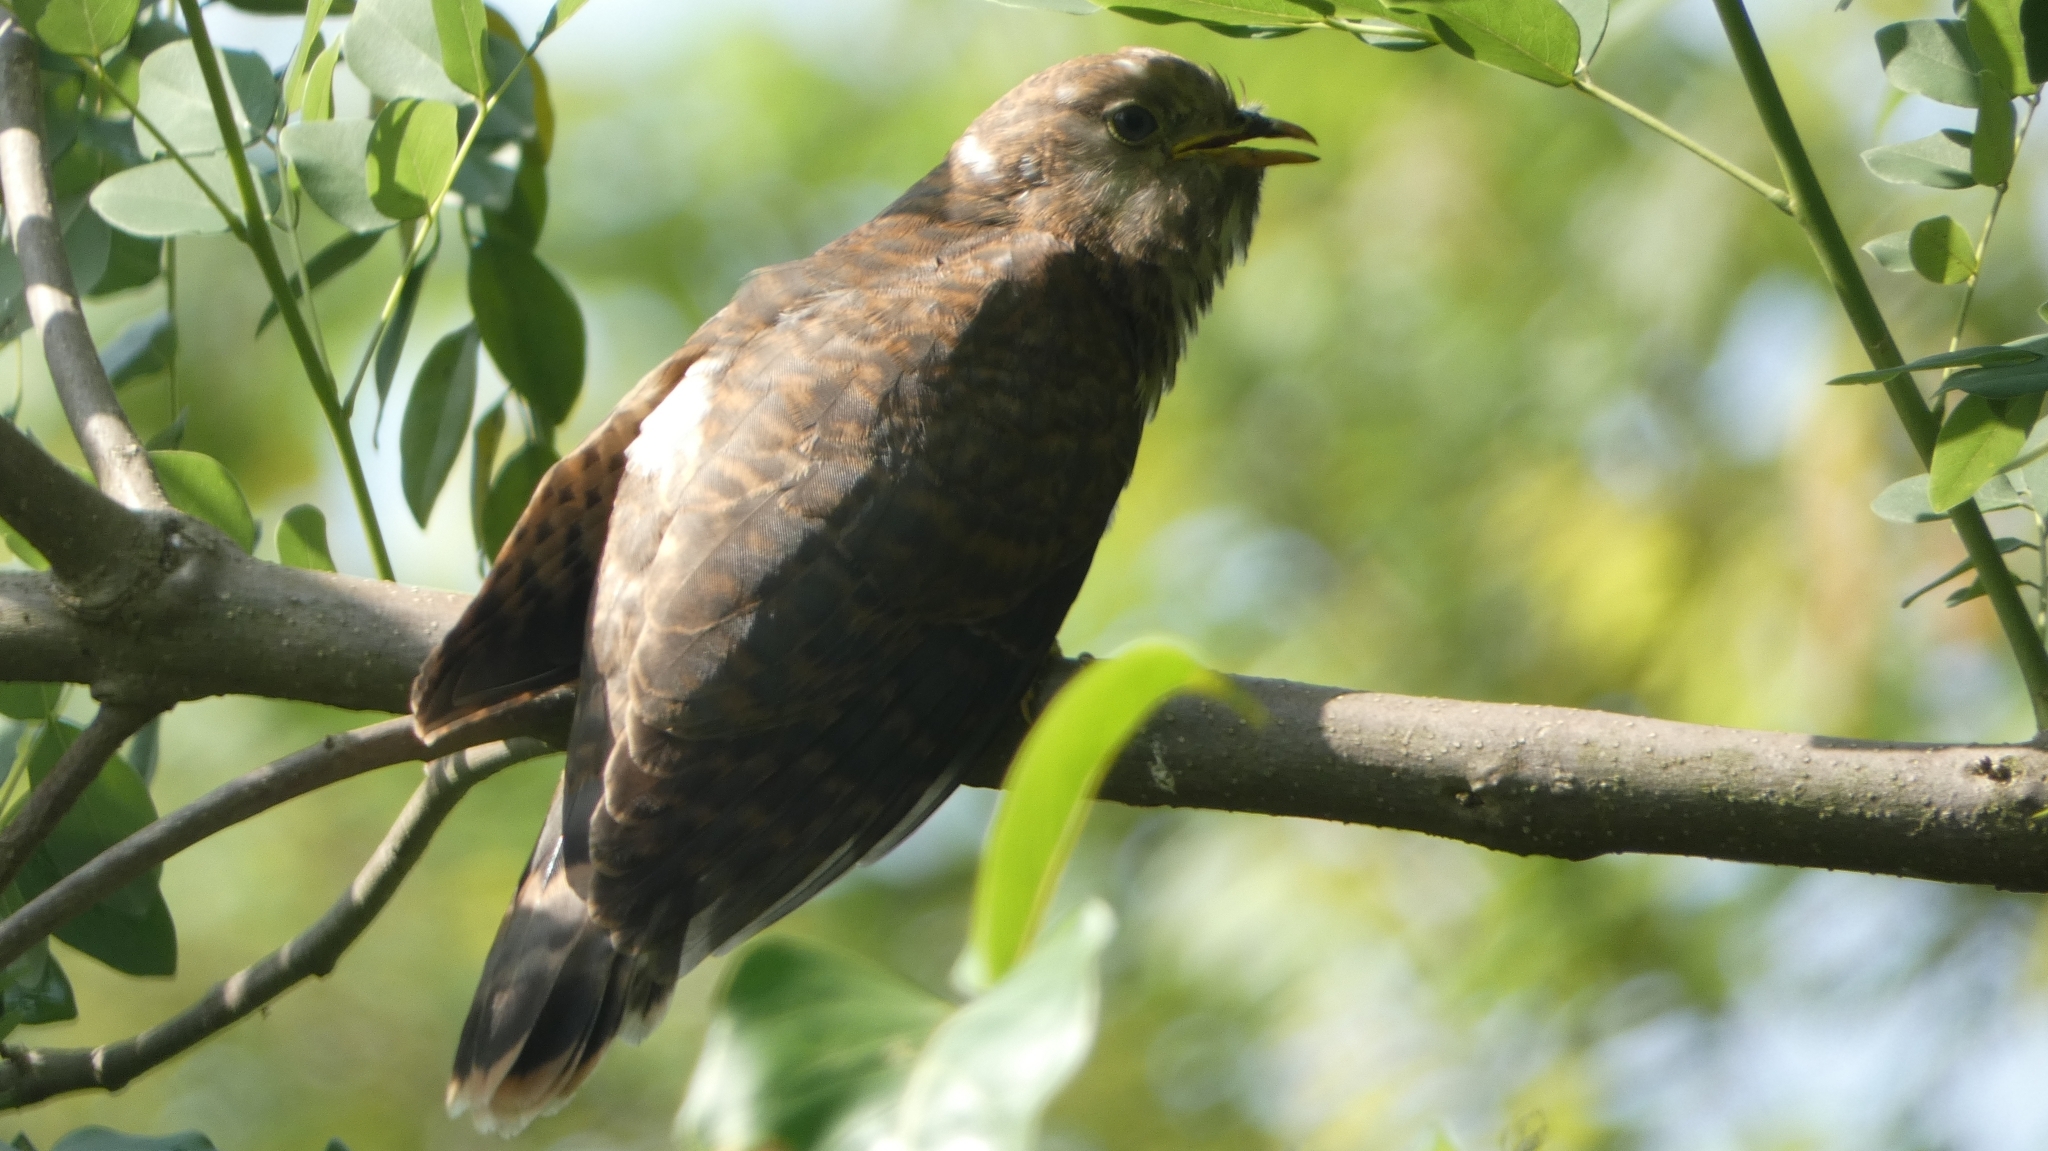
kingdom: Animalia
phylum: Chordata
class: Aves
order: Cuculiformes
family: Cuculidae
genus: Cuculus
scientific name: Cuculus varius
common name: Common hawk cuckoo
